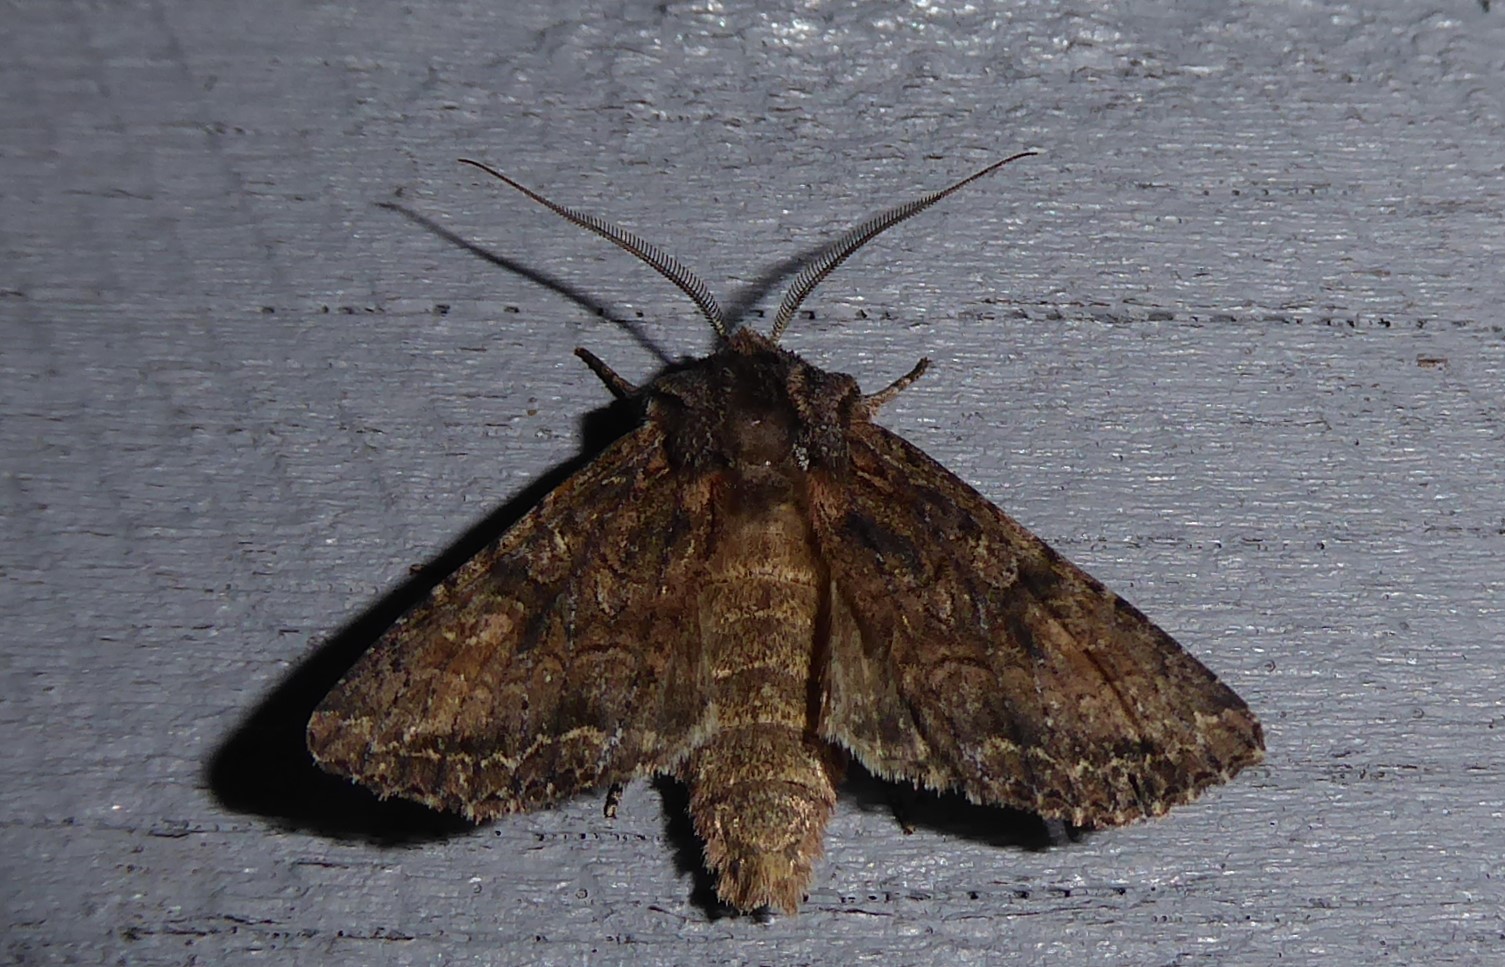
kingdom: Animalia
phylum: Arthropoda
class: Insecta
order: Lepidoptera
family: Noctuidae
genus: Ichneutica
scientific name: Ichneutica mutans
